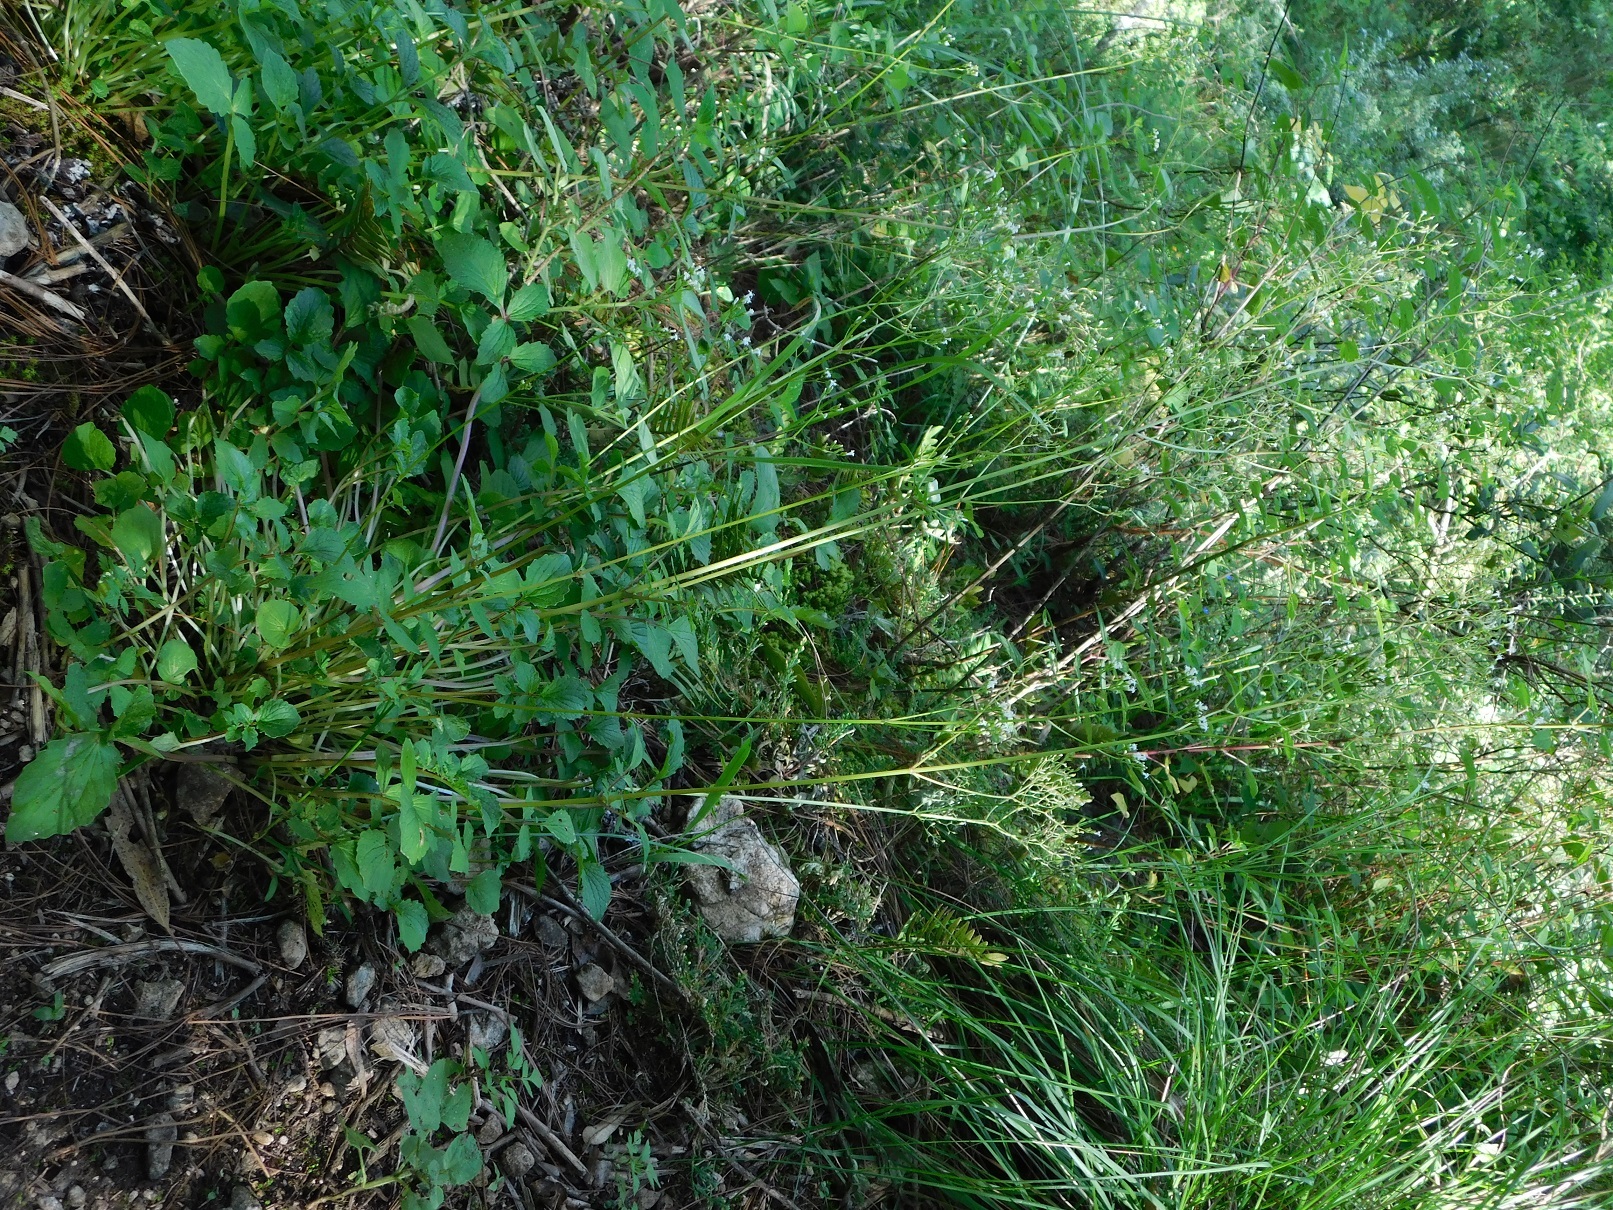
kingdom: Plantae
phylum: Tracheophyta
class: Magnoliopsida
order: Dipsacales
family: Caprifoliaceae
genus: Valeriana
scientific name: Valeriana chiapensis
